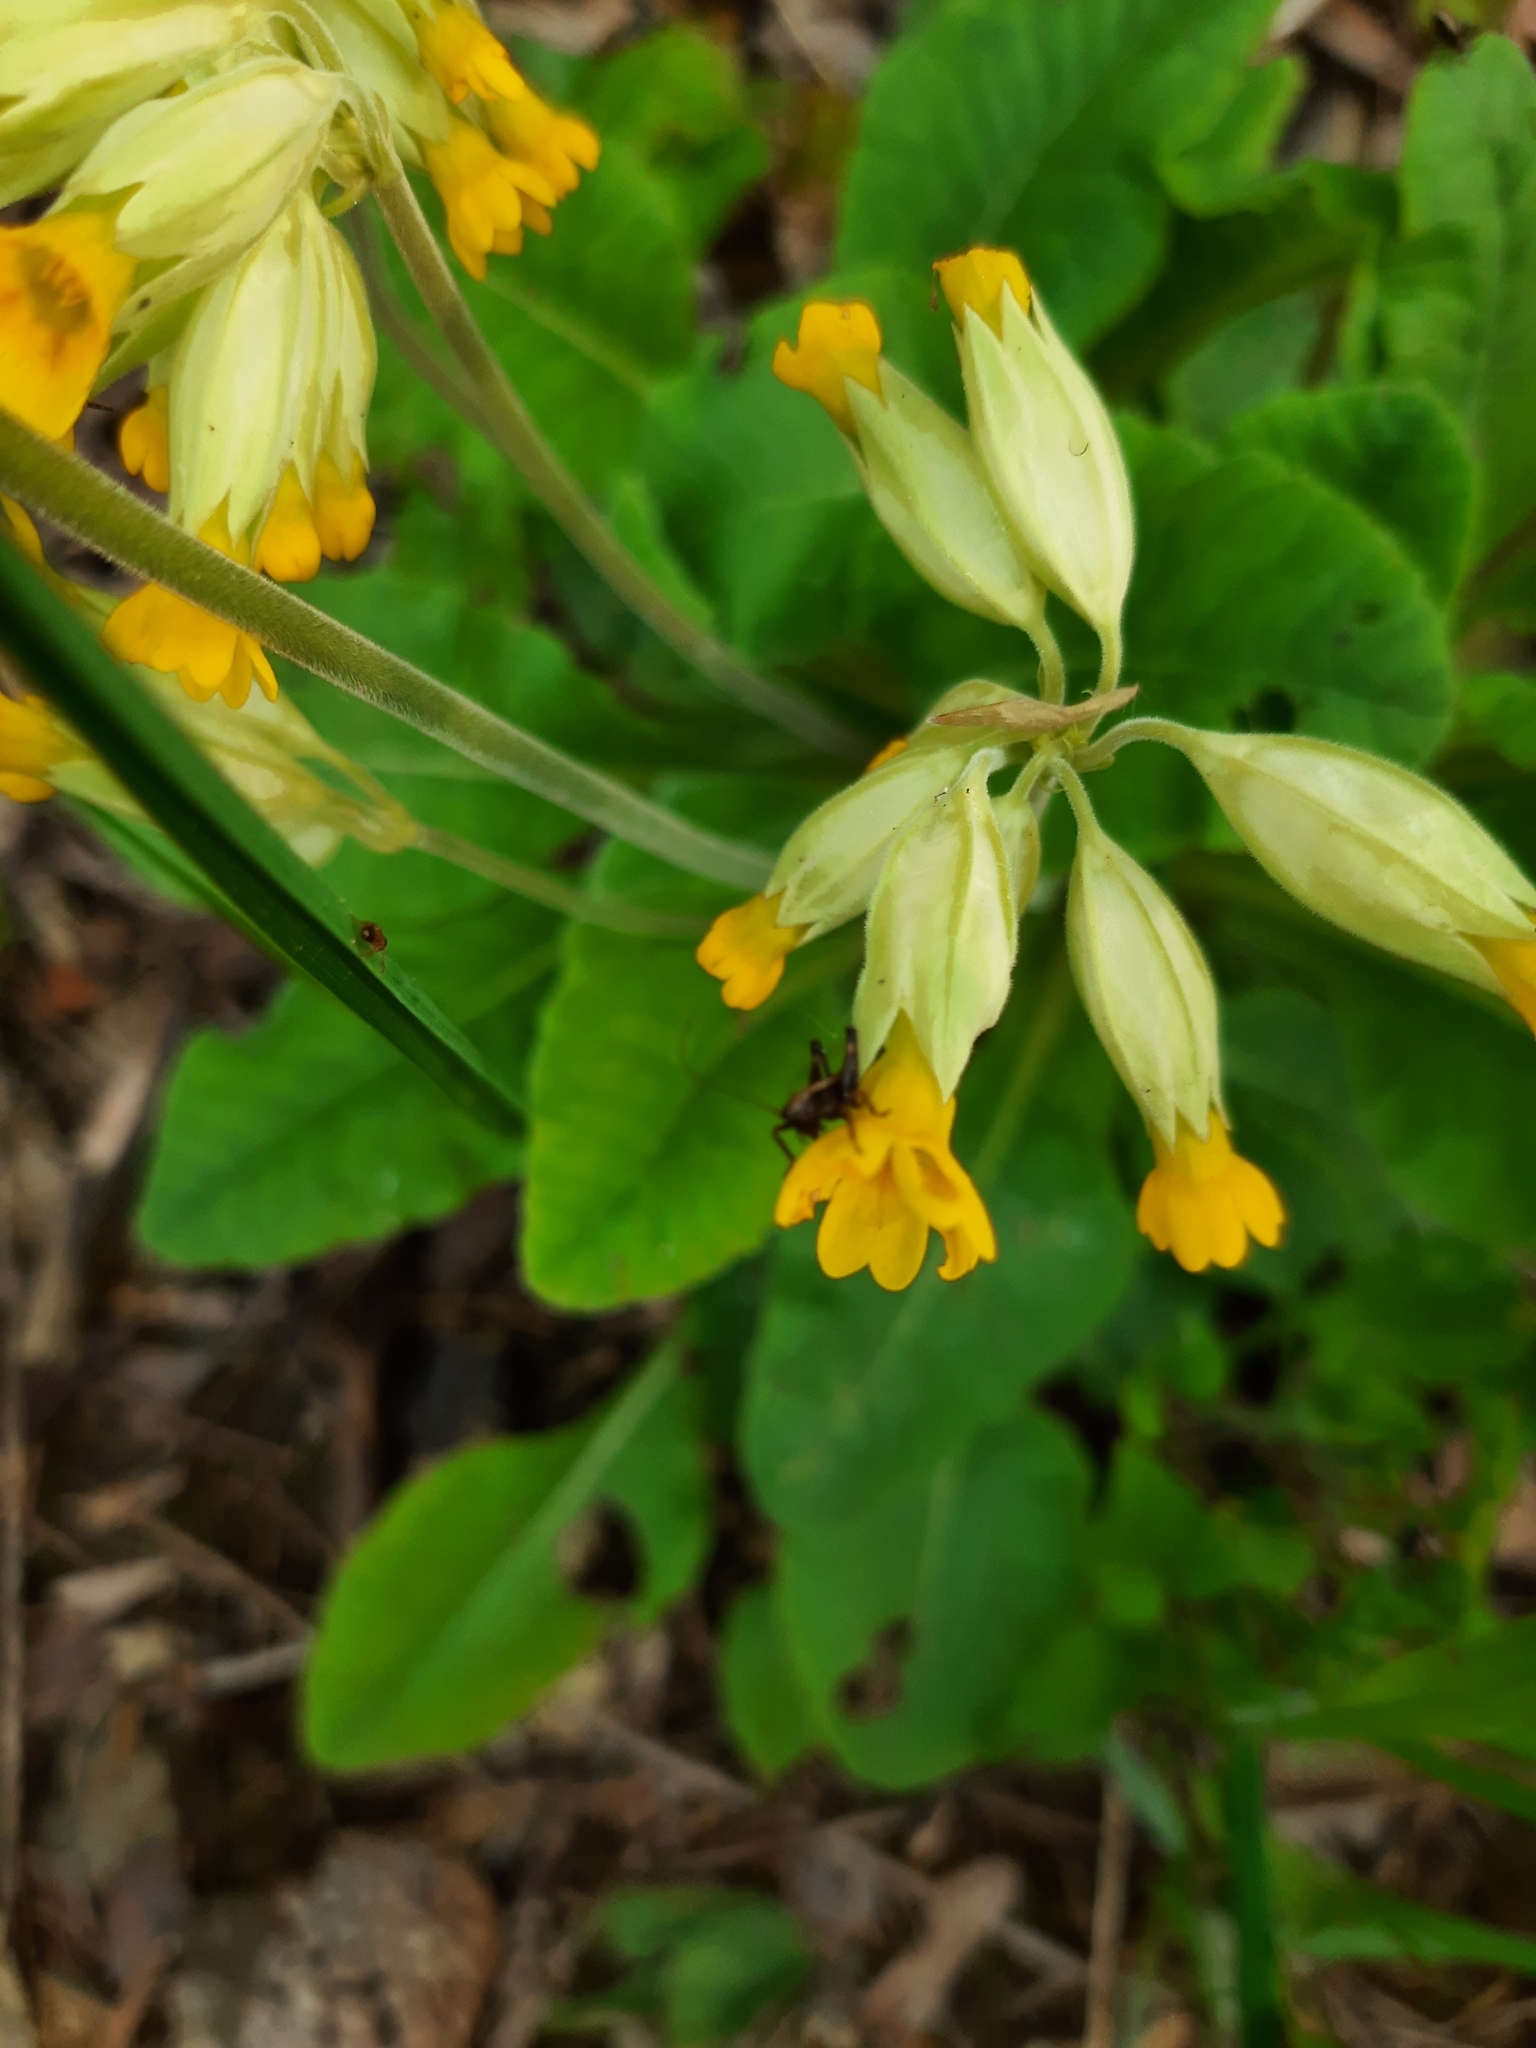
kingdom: Plantae
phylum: Tracheophyta
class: Magnoliopsida
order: Ericales
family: Primulaceae
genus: Primula
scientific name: Primula veris
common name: Cowslip
